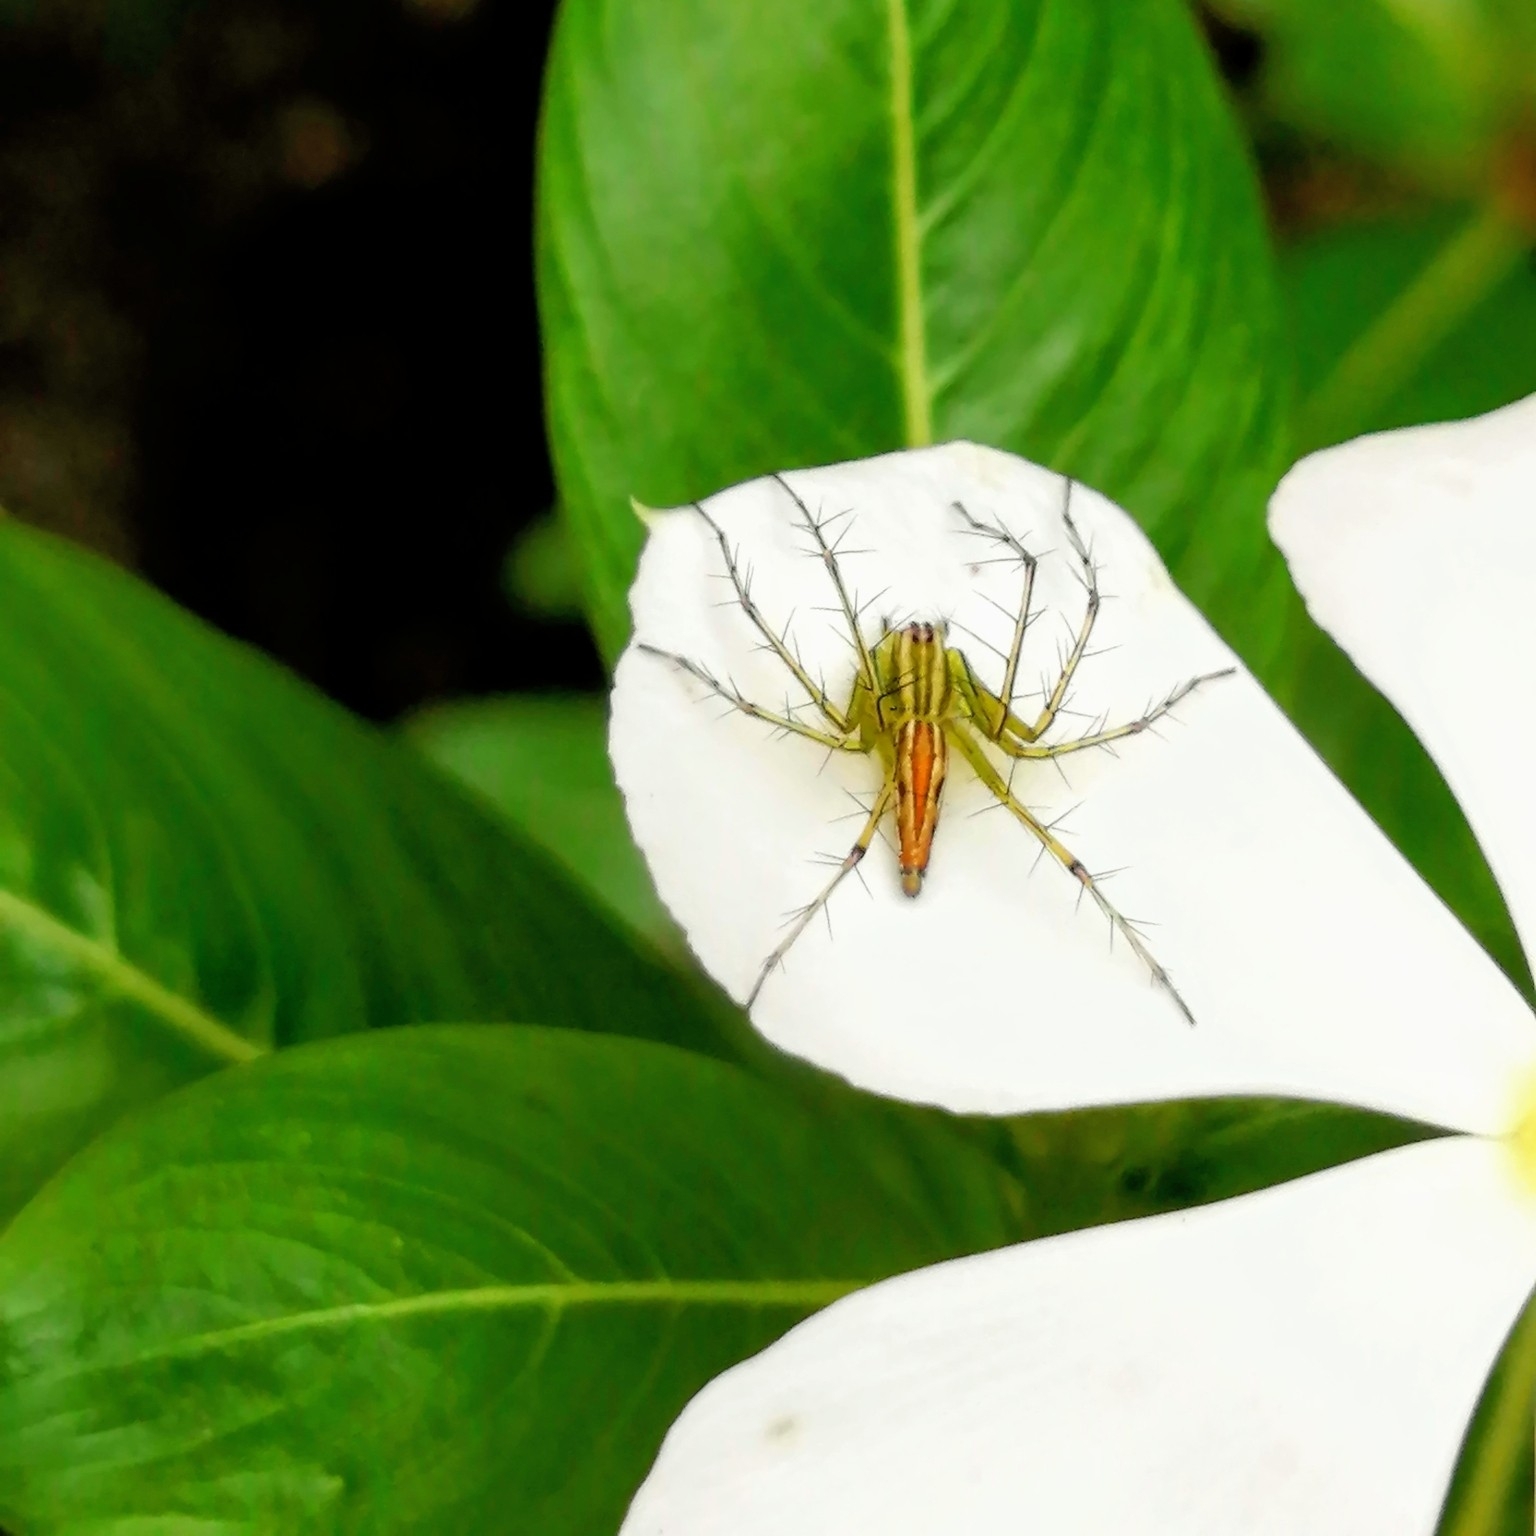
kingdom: Animalia
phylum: Arthropoda
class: Arachnida
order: Araneae
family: Oxyopidae
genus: Oxyopes
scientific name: Oxyopes macilentus
